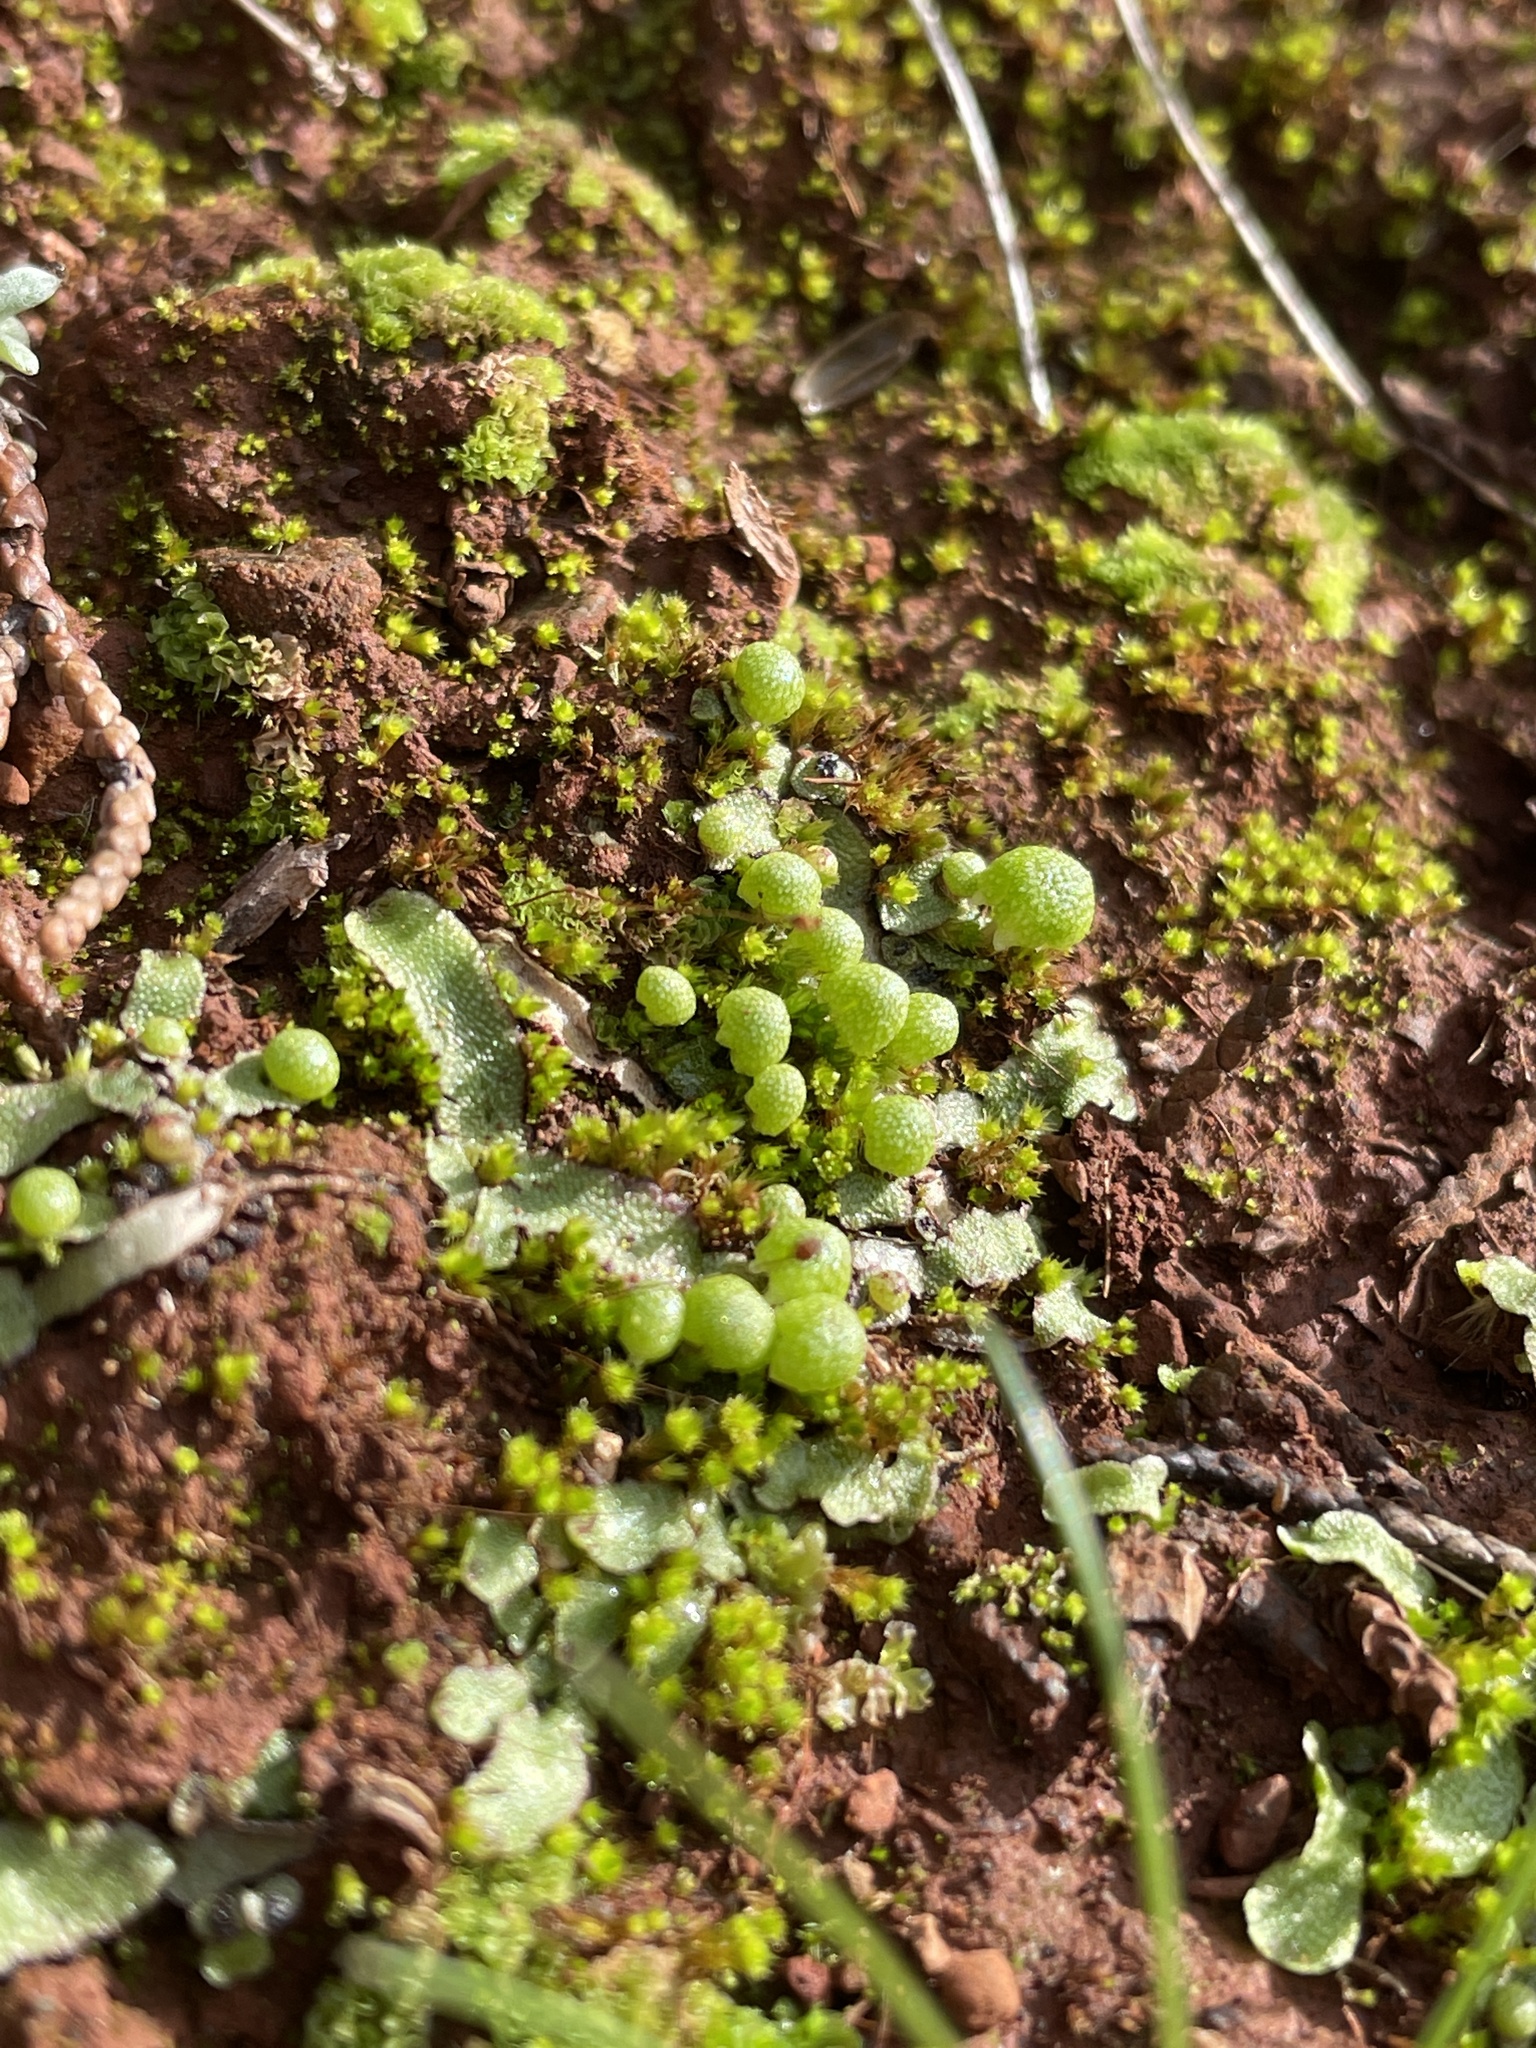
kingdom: Plantae
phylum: Marchantiophyta
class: Marchantiopsida
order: Marchantiales
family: Aytoniaceae
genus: Asterella
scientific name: Asterella bolanderi
